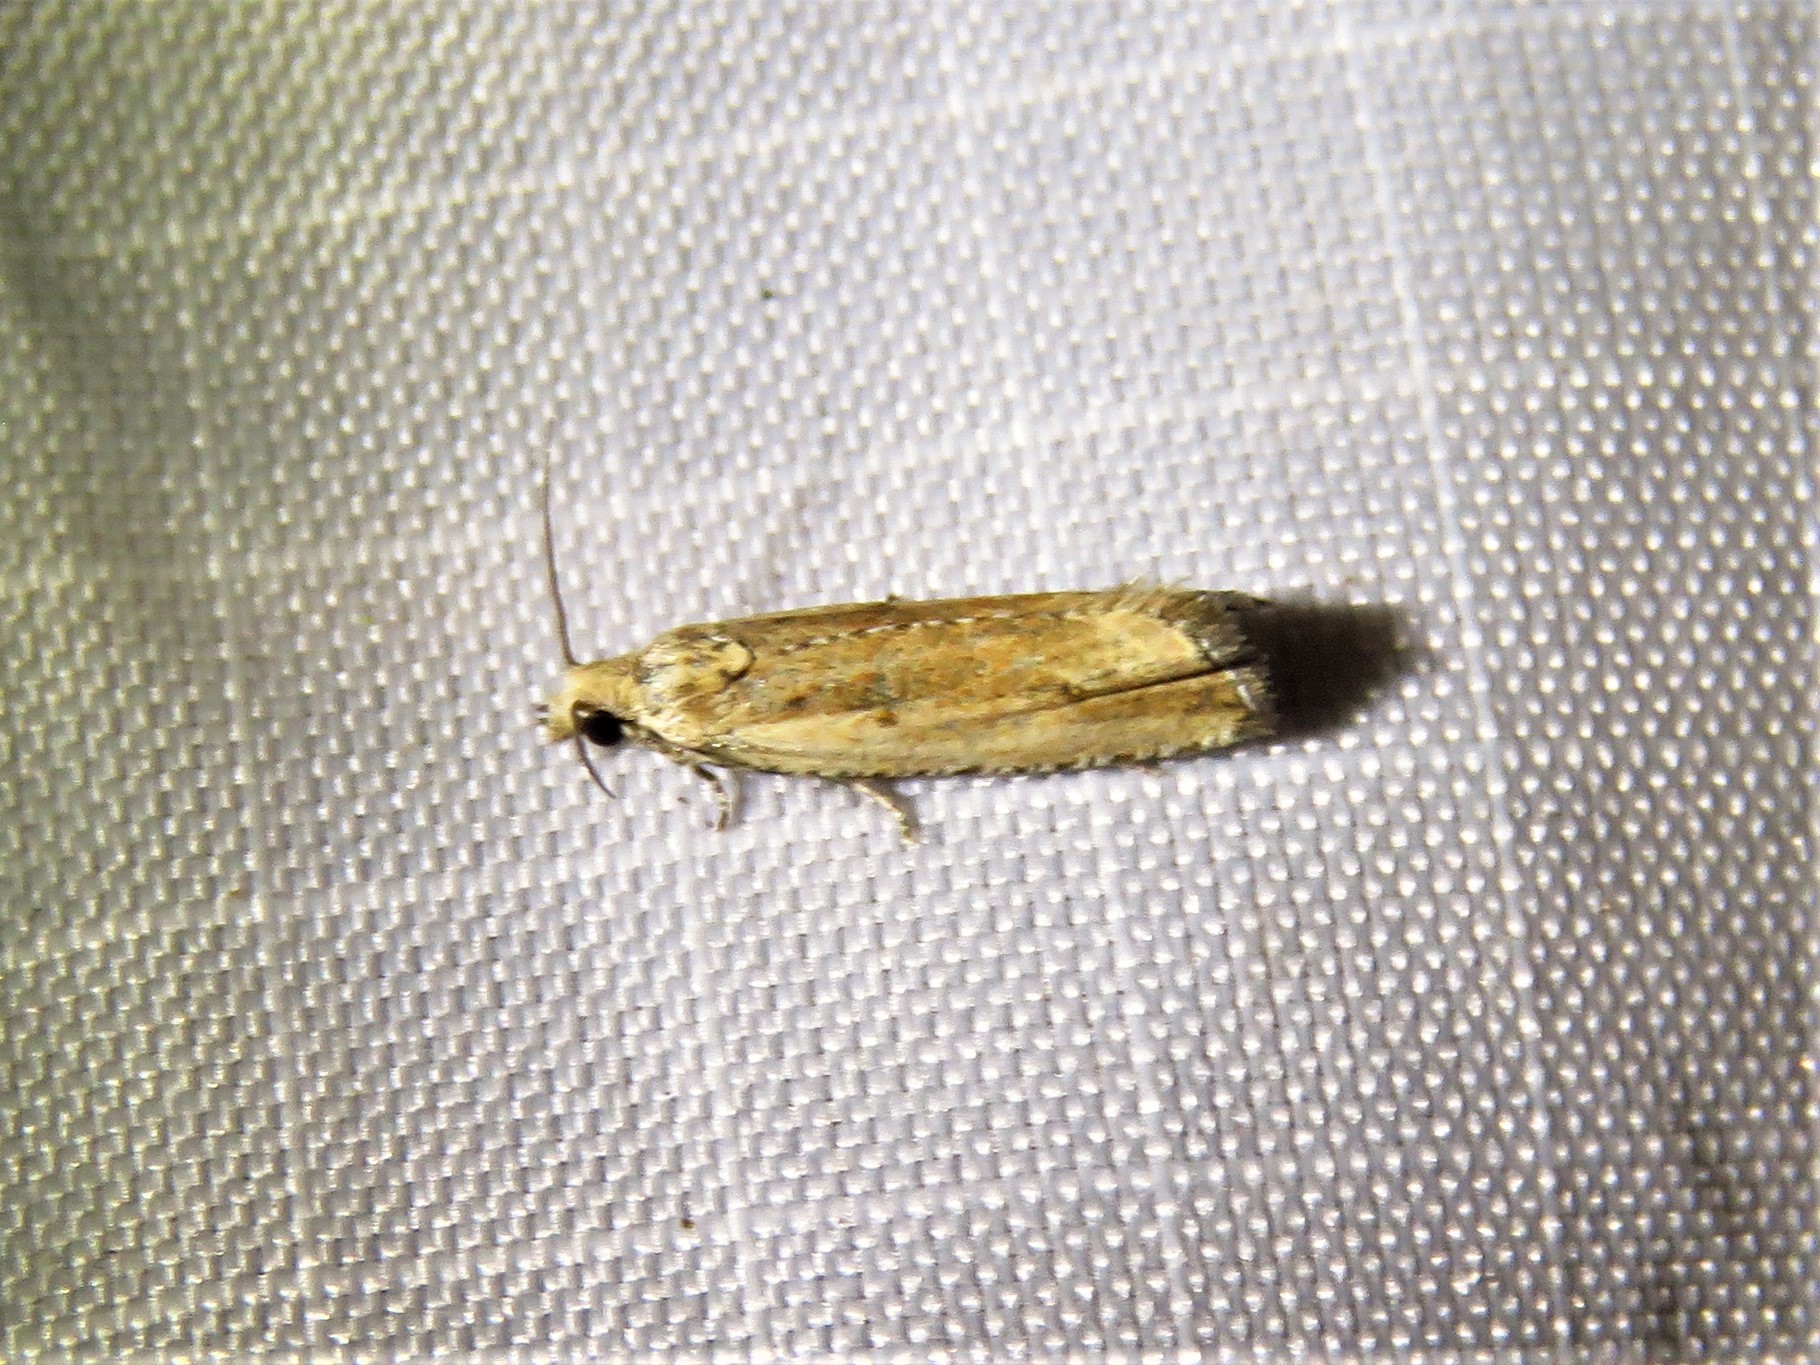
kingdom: Animalia
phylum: Arthropoda
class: Insecta
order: Lepidoptera
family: Tortricidae
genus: Bactra
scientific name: Bactra verutana
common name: Javelin moth
